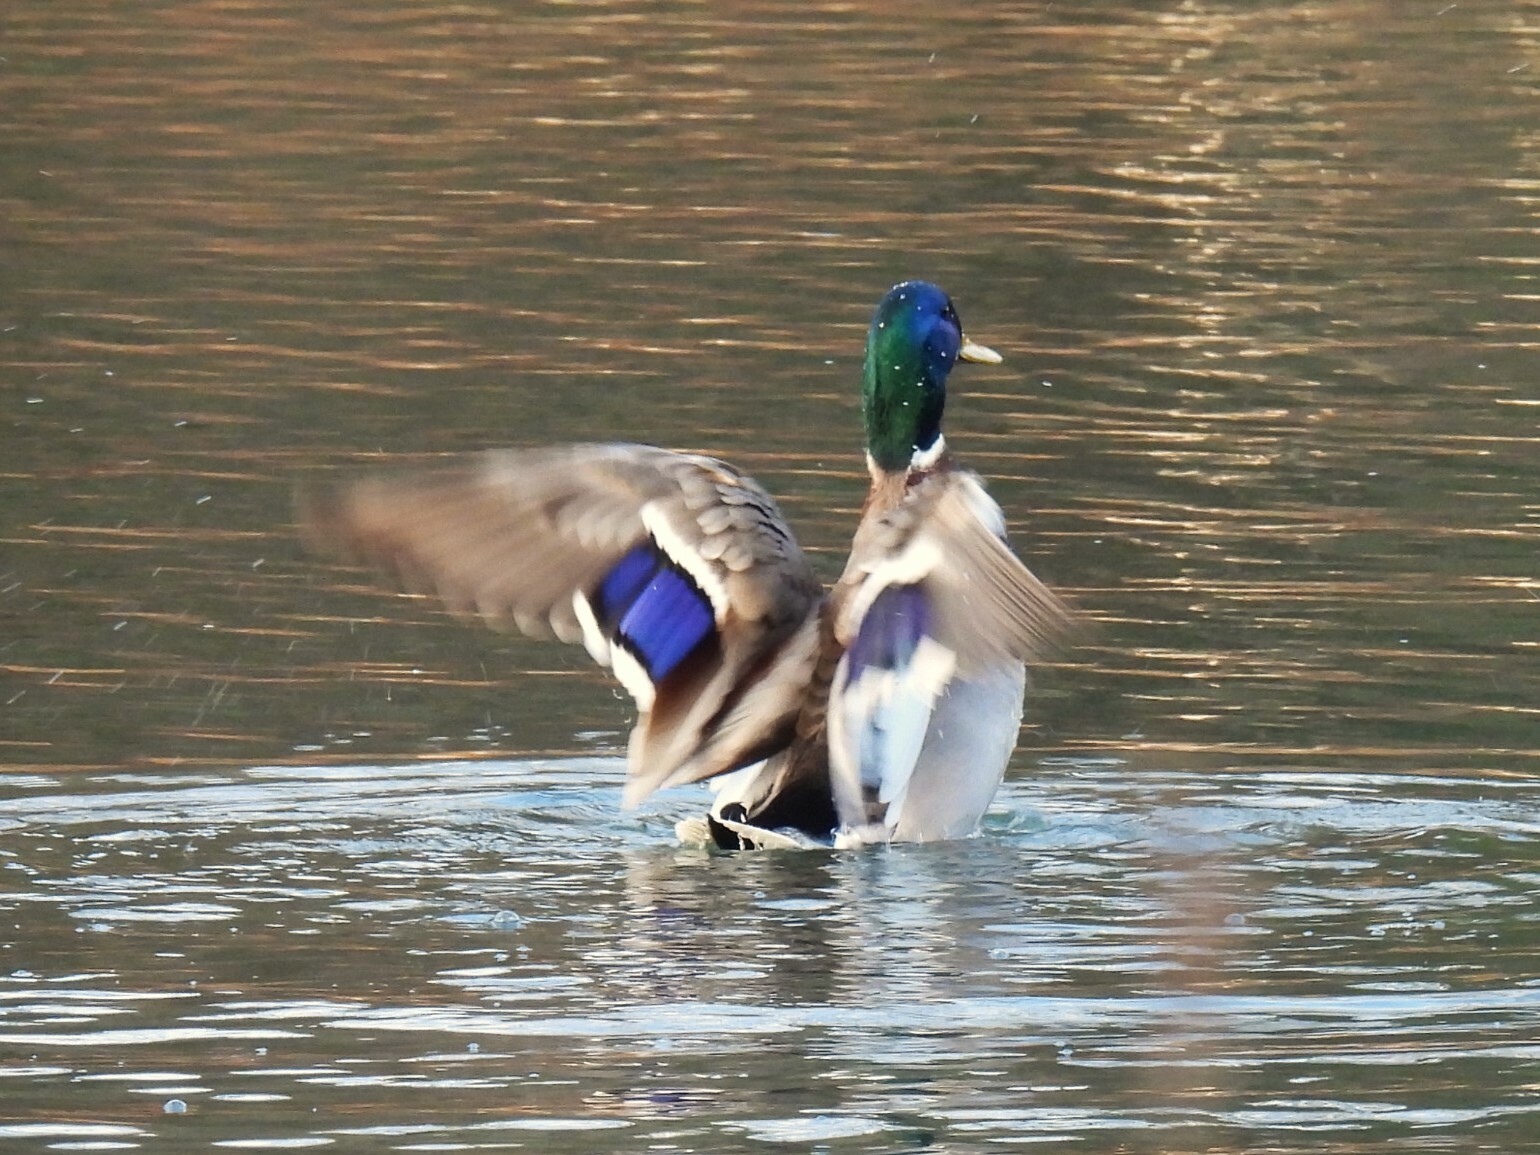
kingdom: Animalia
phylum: Chordata
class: Aves
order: Anseriformes
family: Anatidae
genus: Anas
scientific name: Anas platyrhynchos
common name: Mallard
